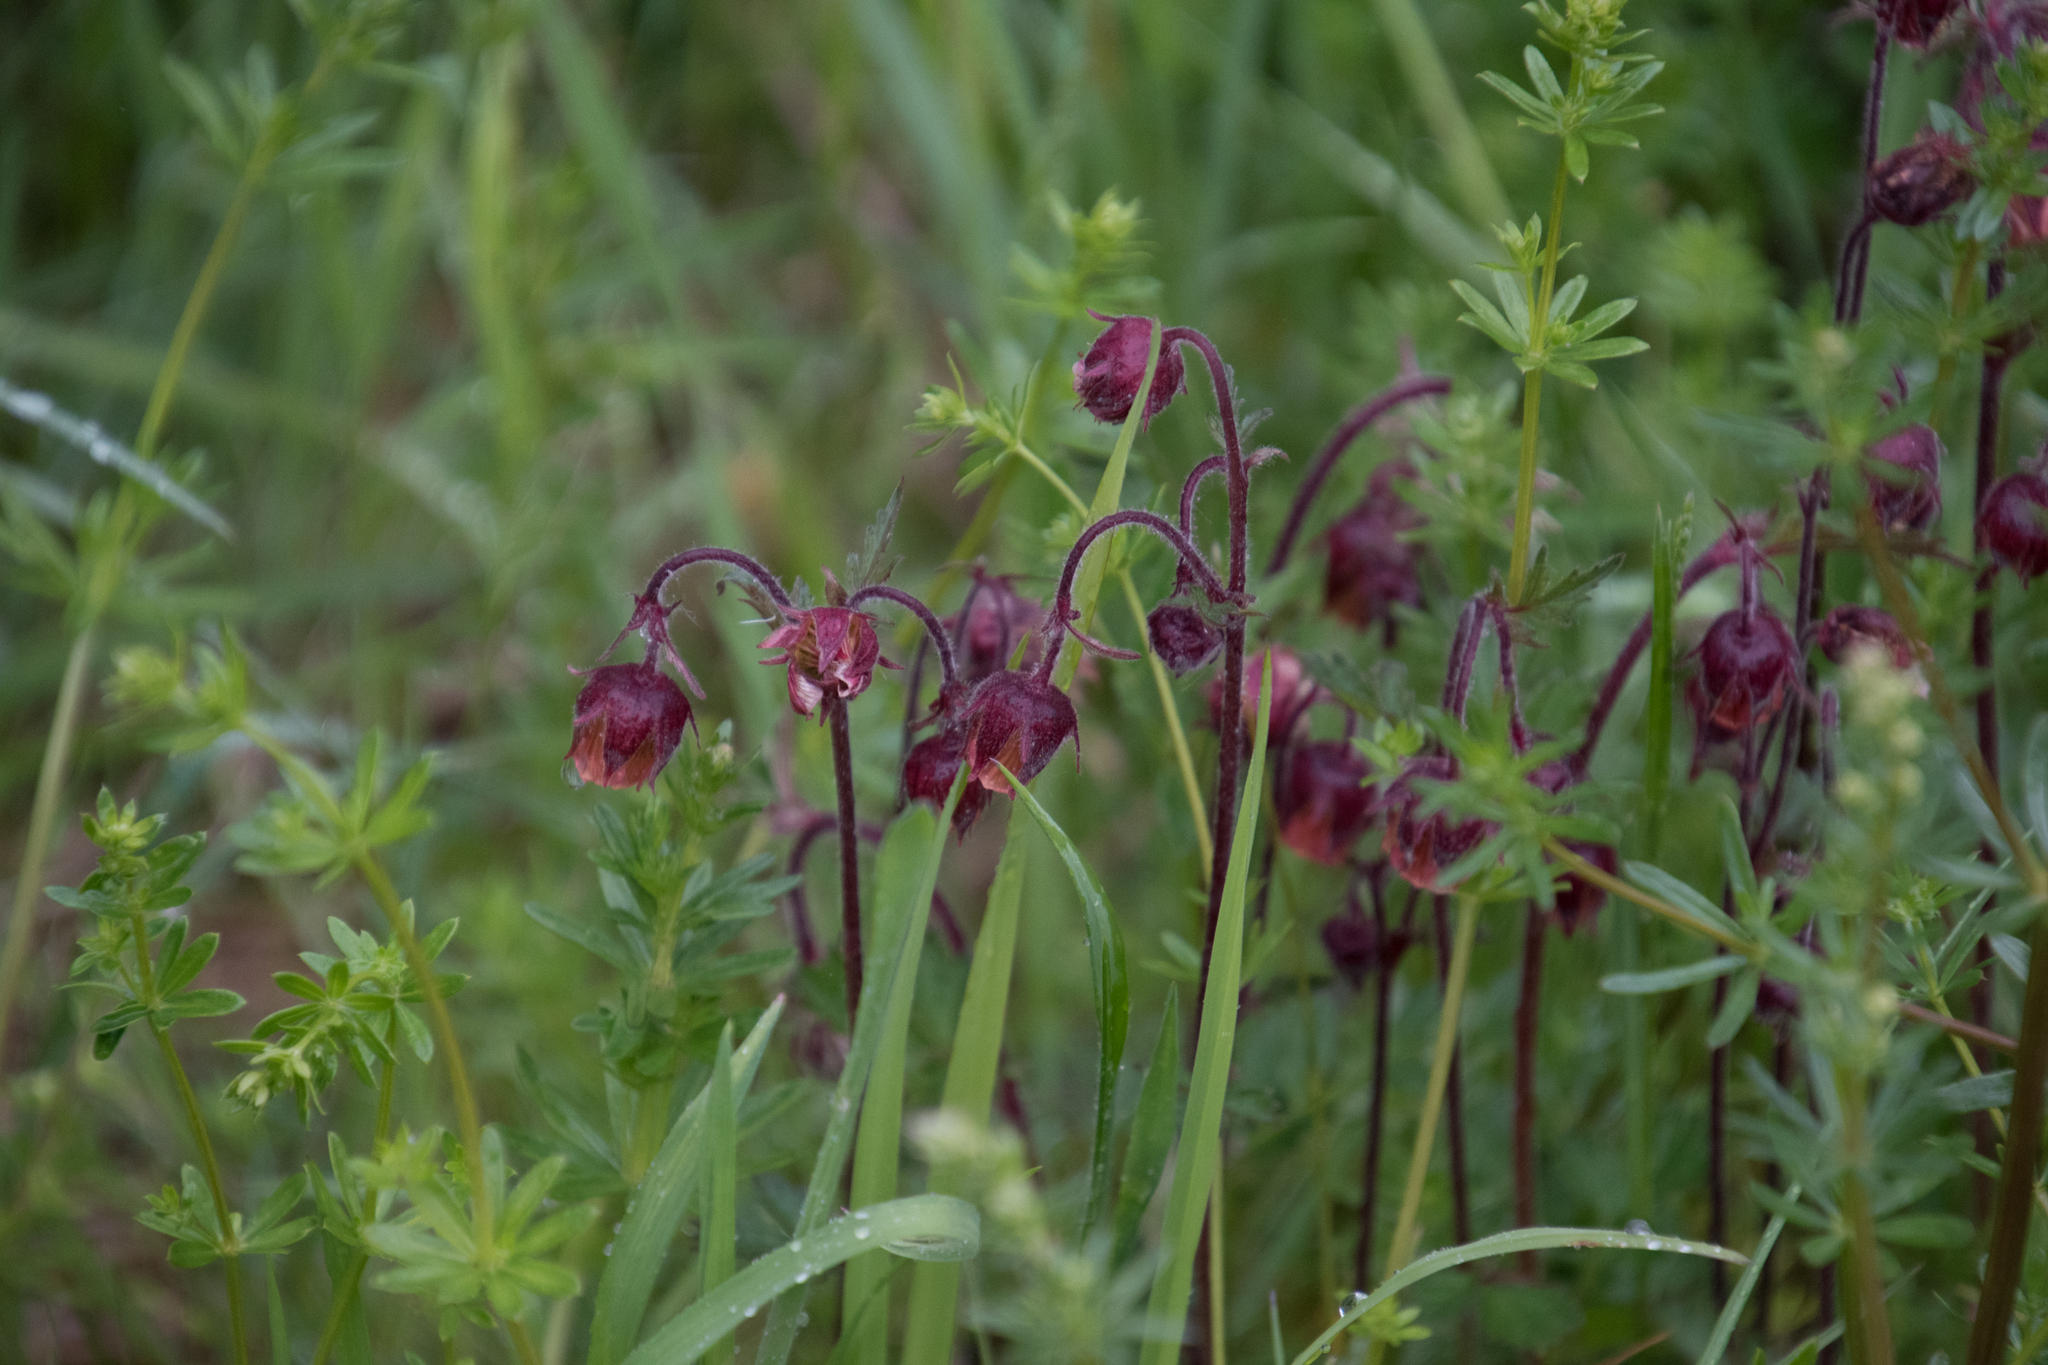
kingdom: Plantae
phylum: Tracheophyta
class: Magnoliopsida
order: Rosales
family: Rosaceae
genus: Geum
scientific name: Geum rivale
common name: Water avens
